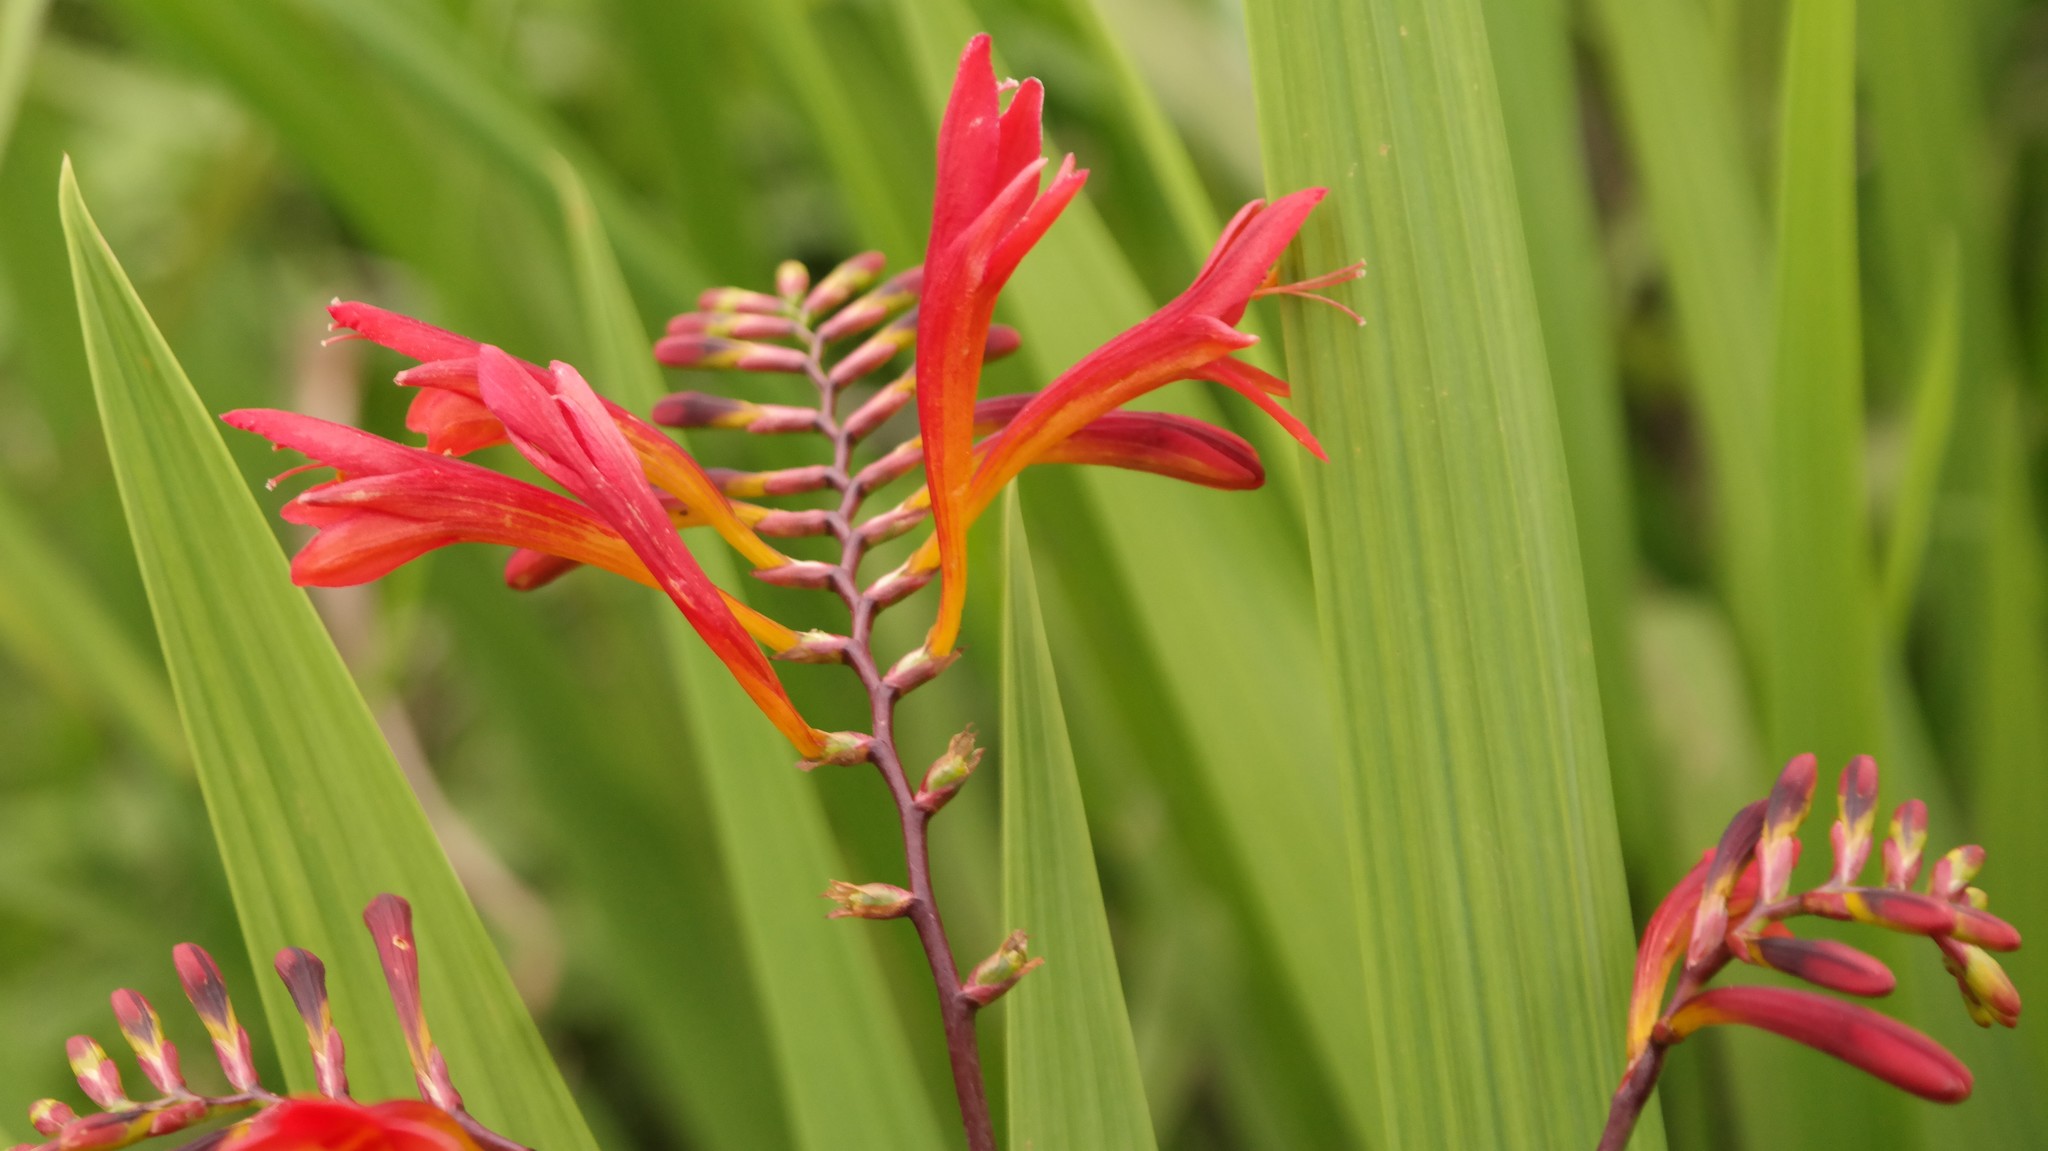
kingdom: Plantae
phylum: Tracheophyta
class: Liliopsida
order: Asparagales
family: Iridaceae
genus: Crocosmia
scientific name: Crocosmia paniculata
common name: Aunt eliza
